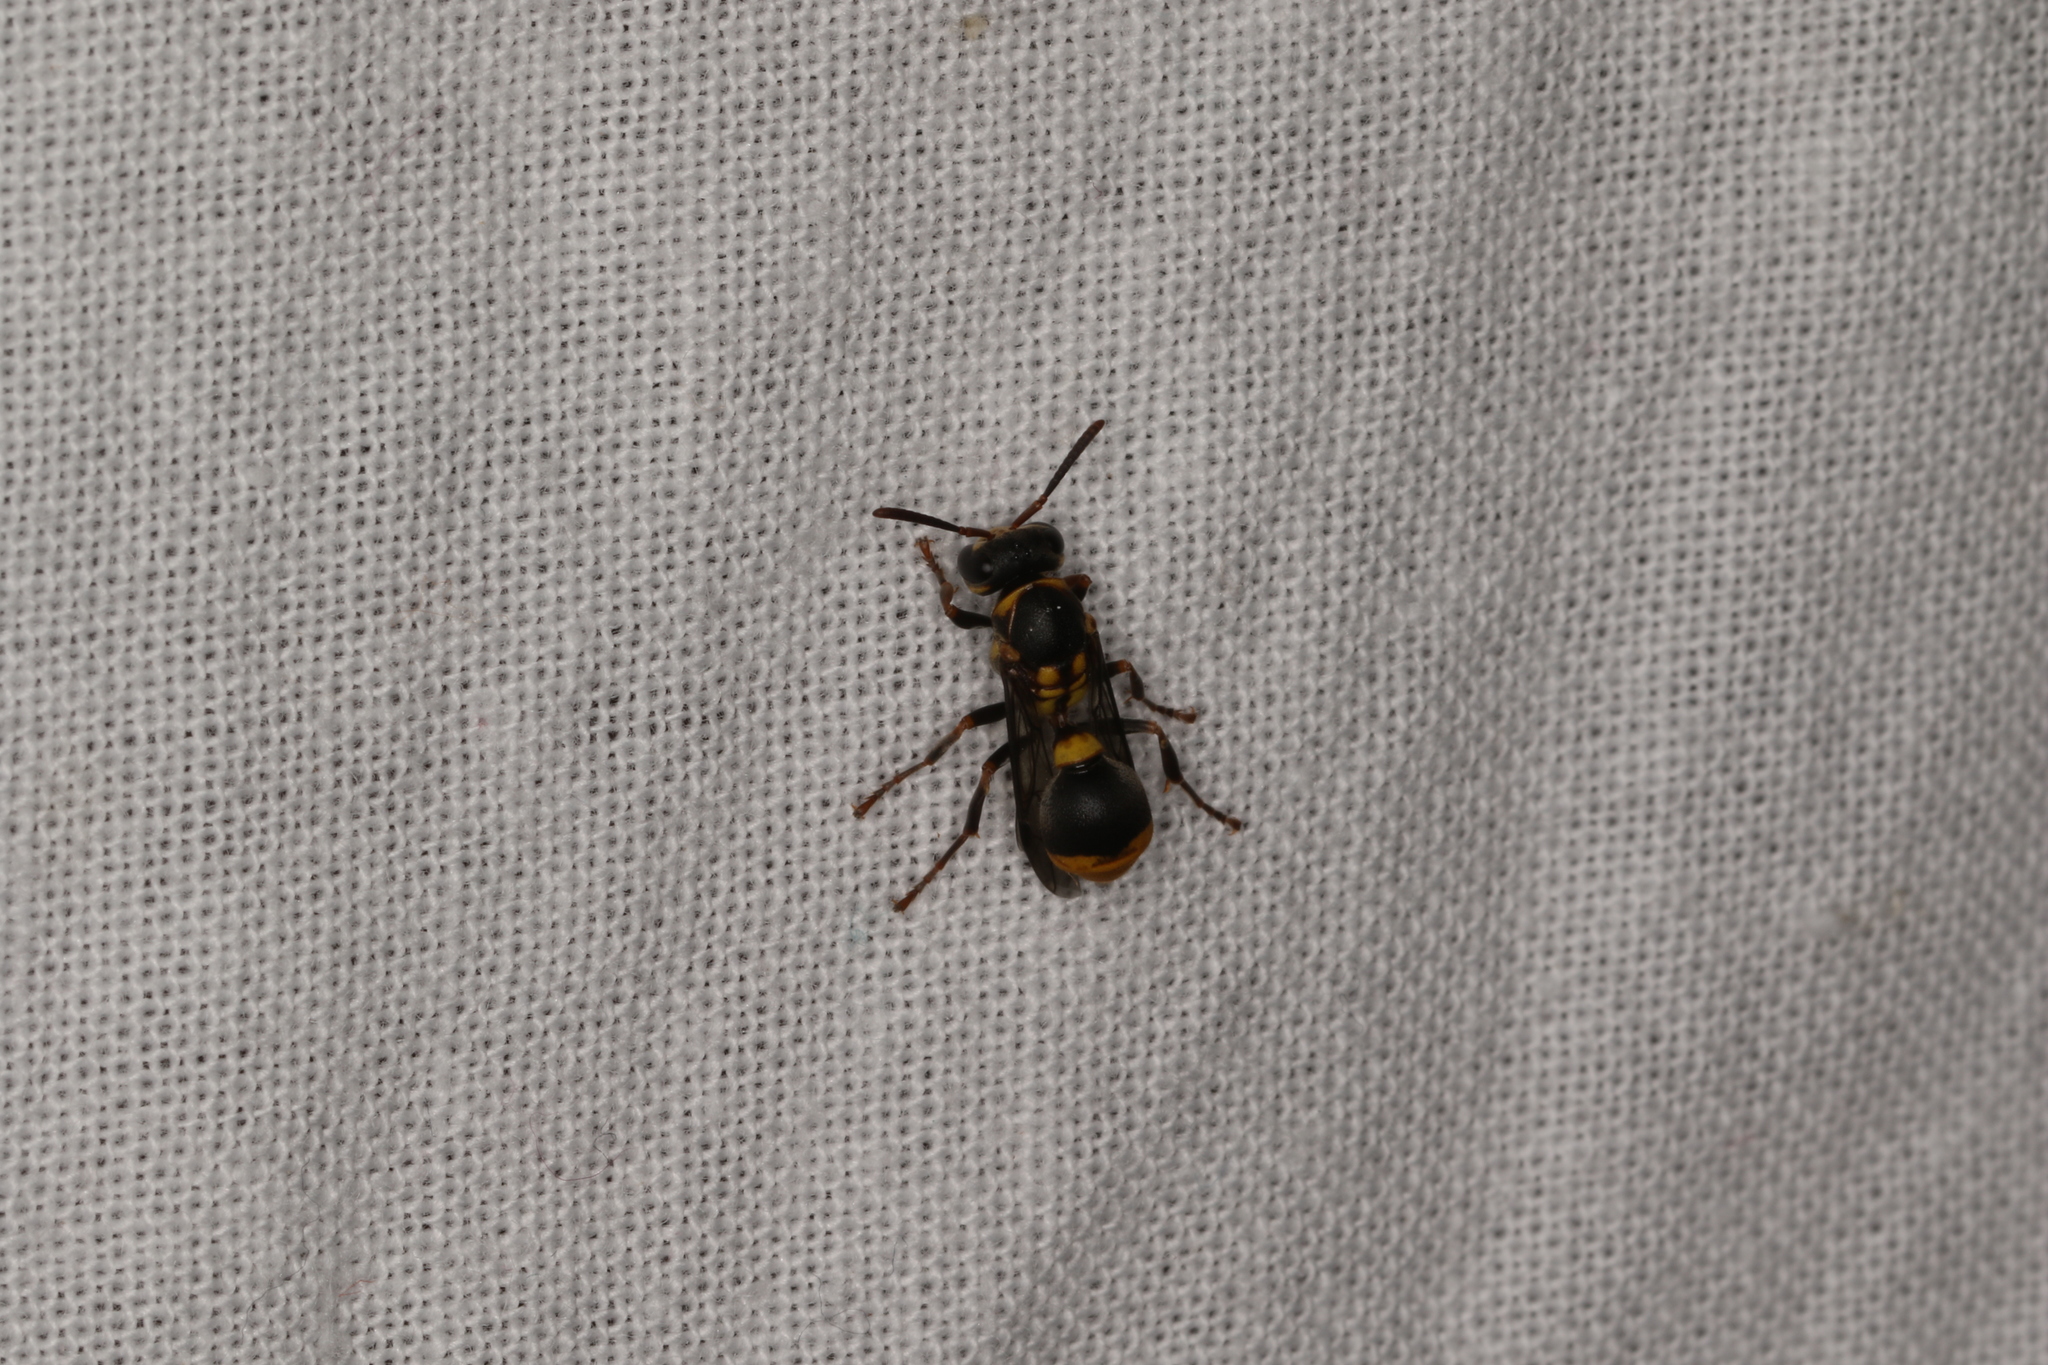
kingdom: Animalia
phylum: Arthropoda
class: Insecta
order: Hymenoptera
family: Vespidae
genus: Ropalidia
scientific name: Ropalidia socialistica
